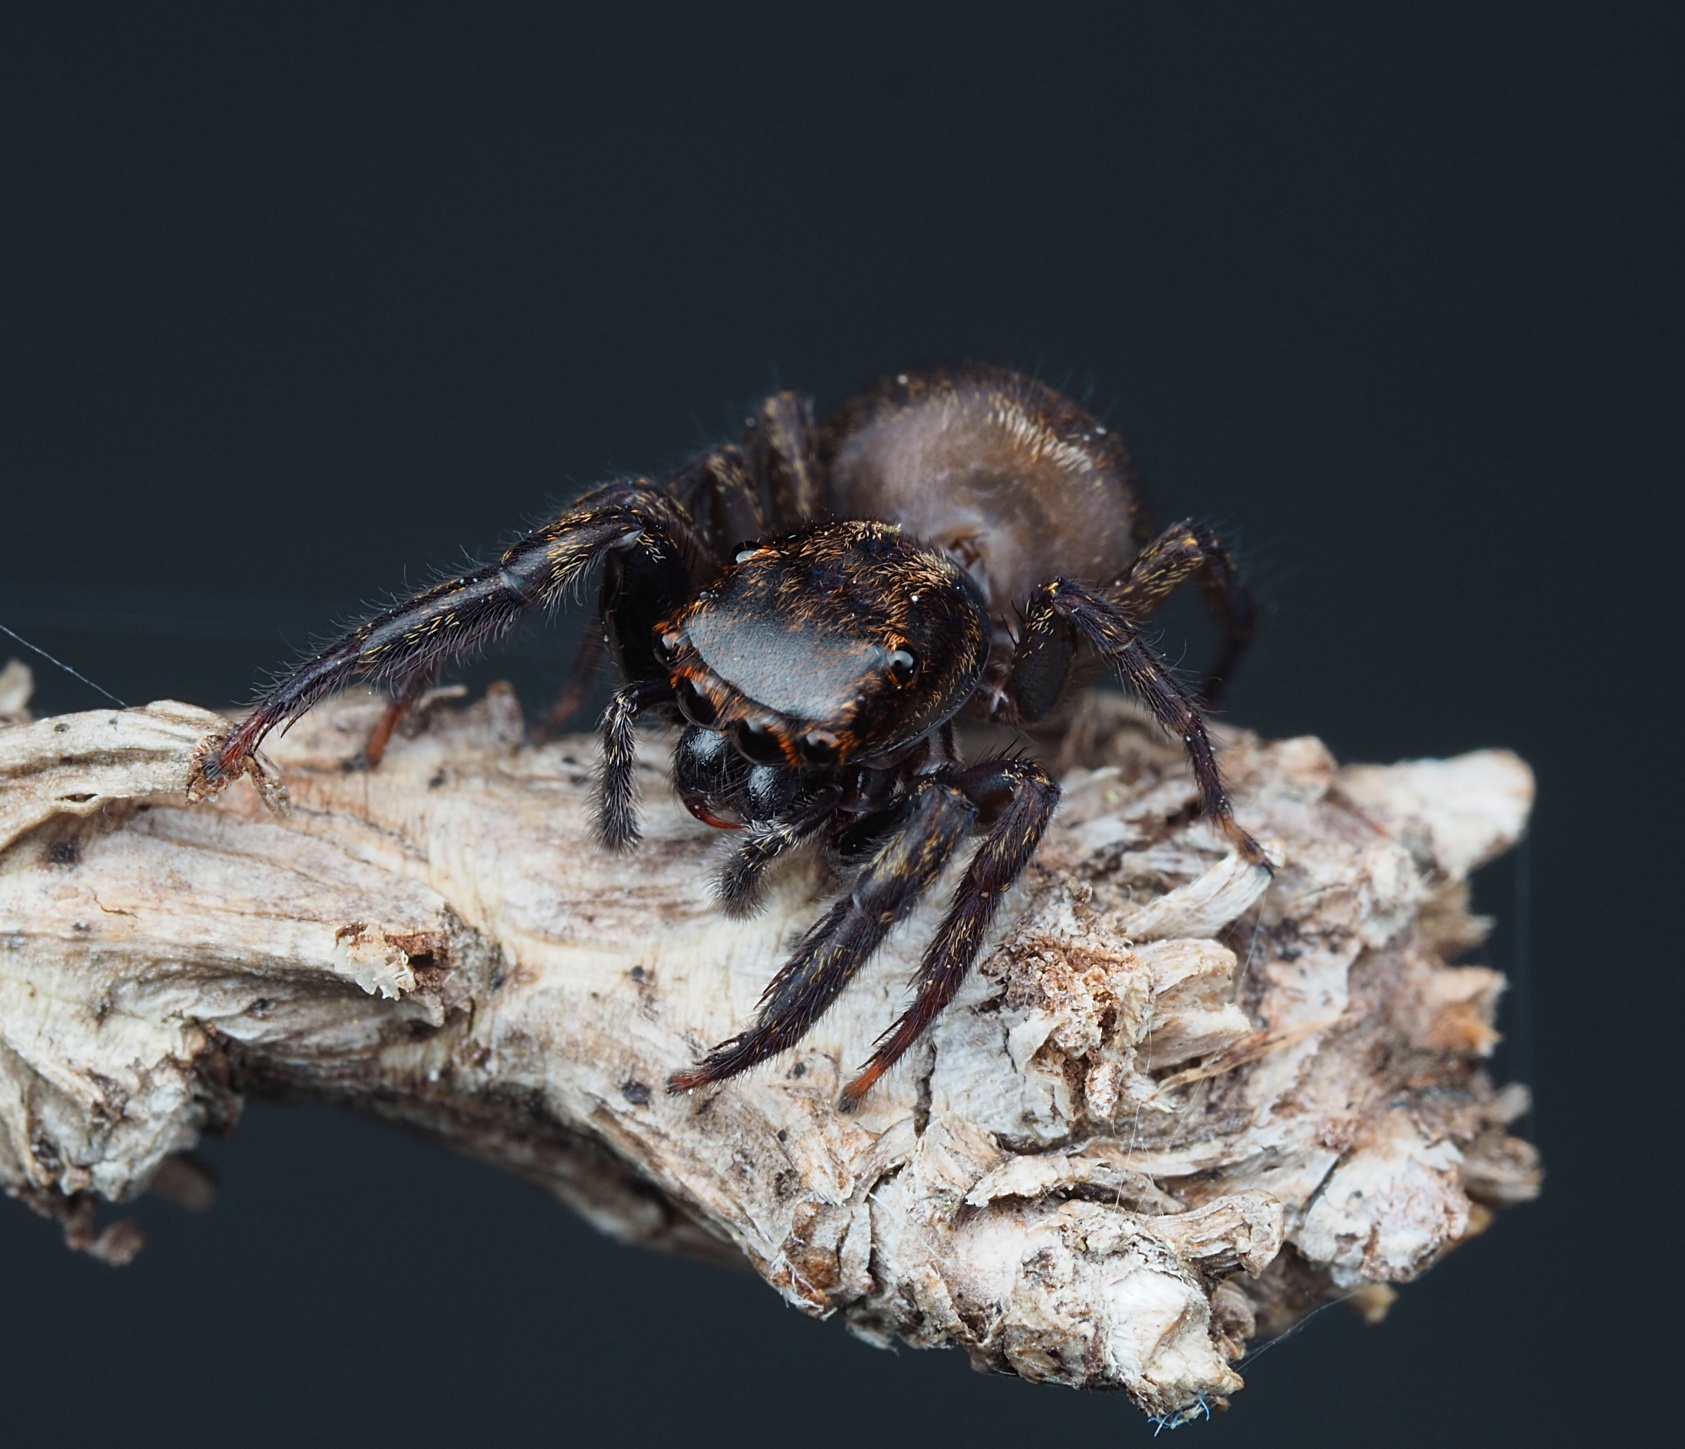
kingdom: Animalia
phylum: Arthropoda
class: Arachnida
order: Araneae
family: Salticidae
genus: Trite
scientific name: Trite auricoma
